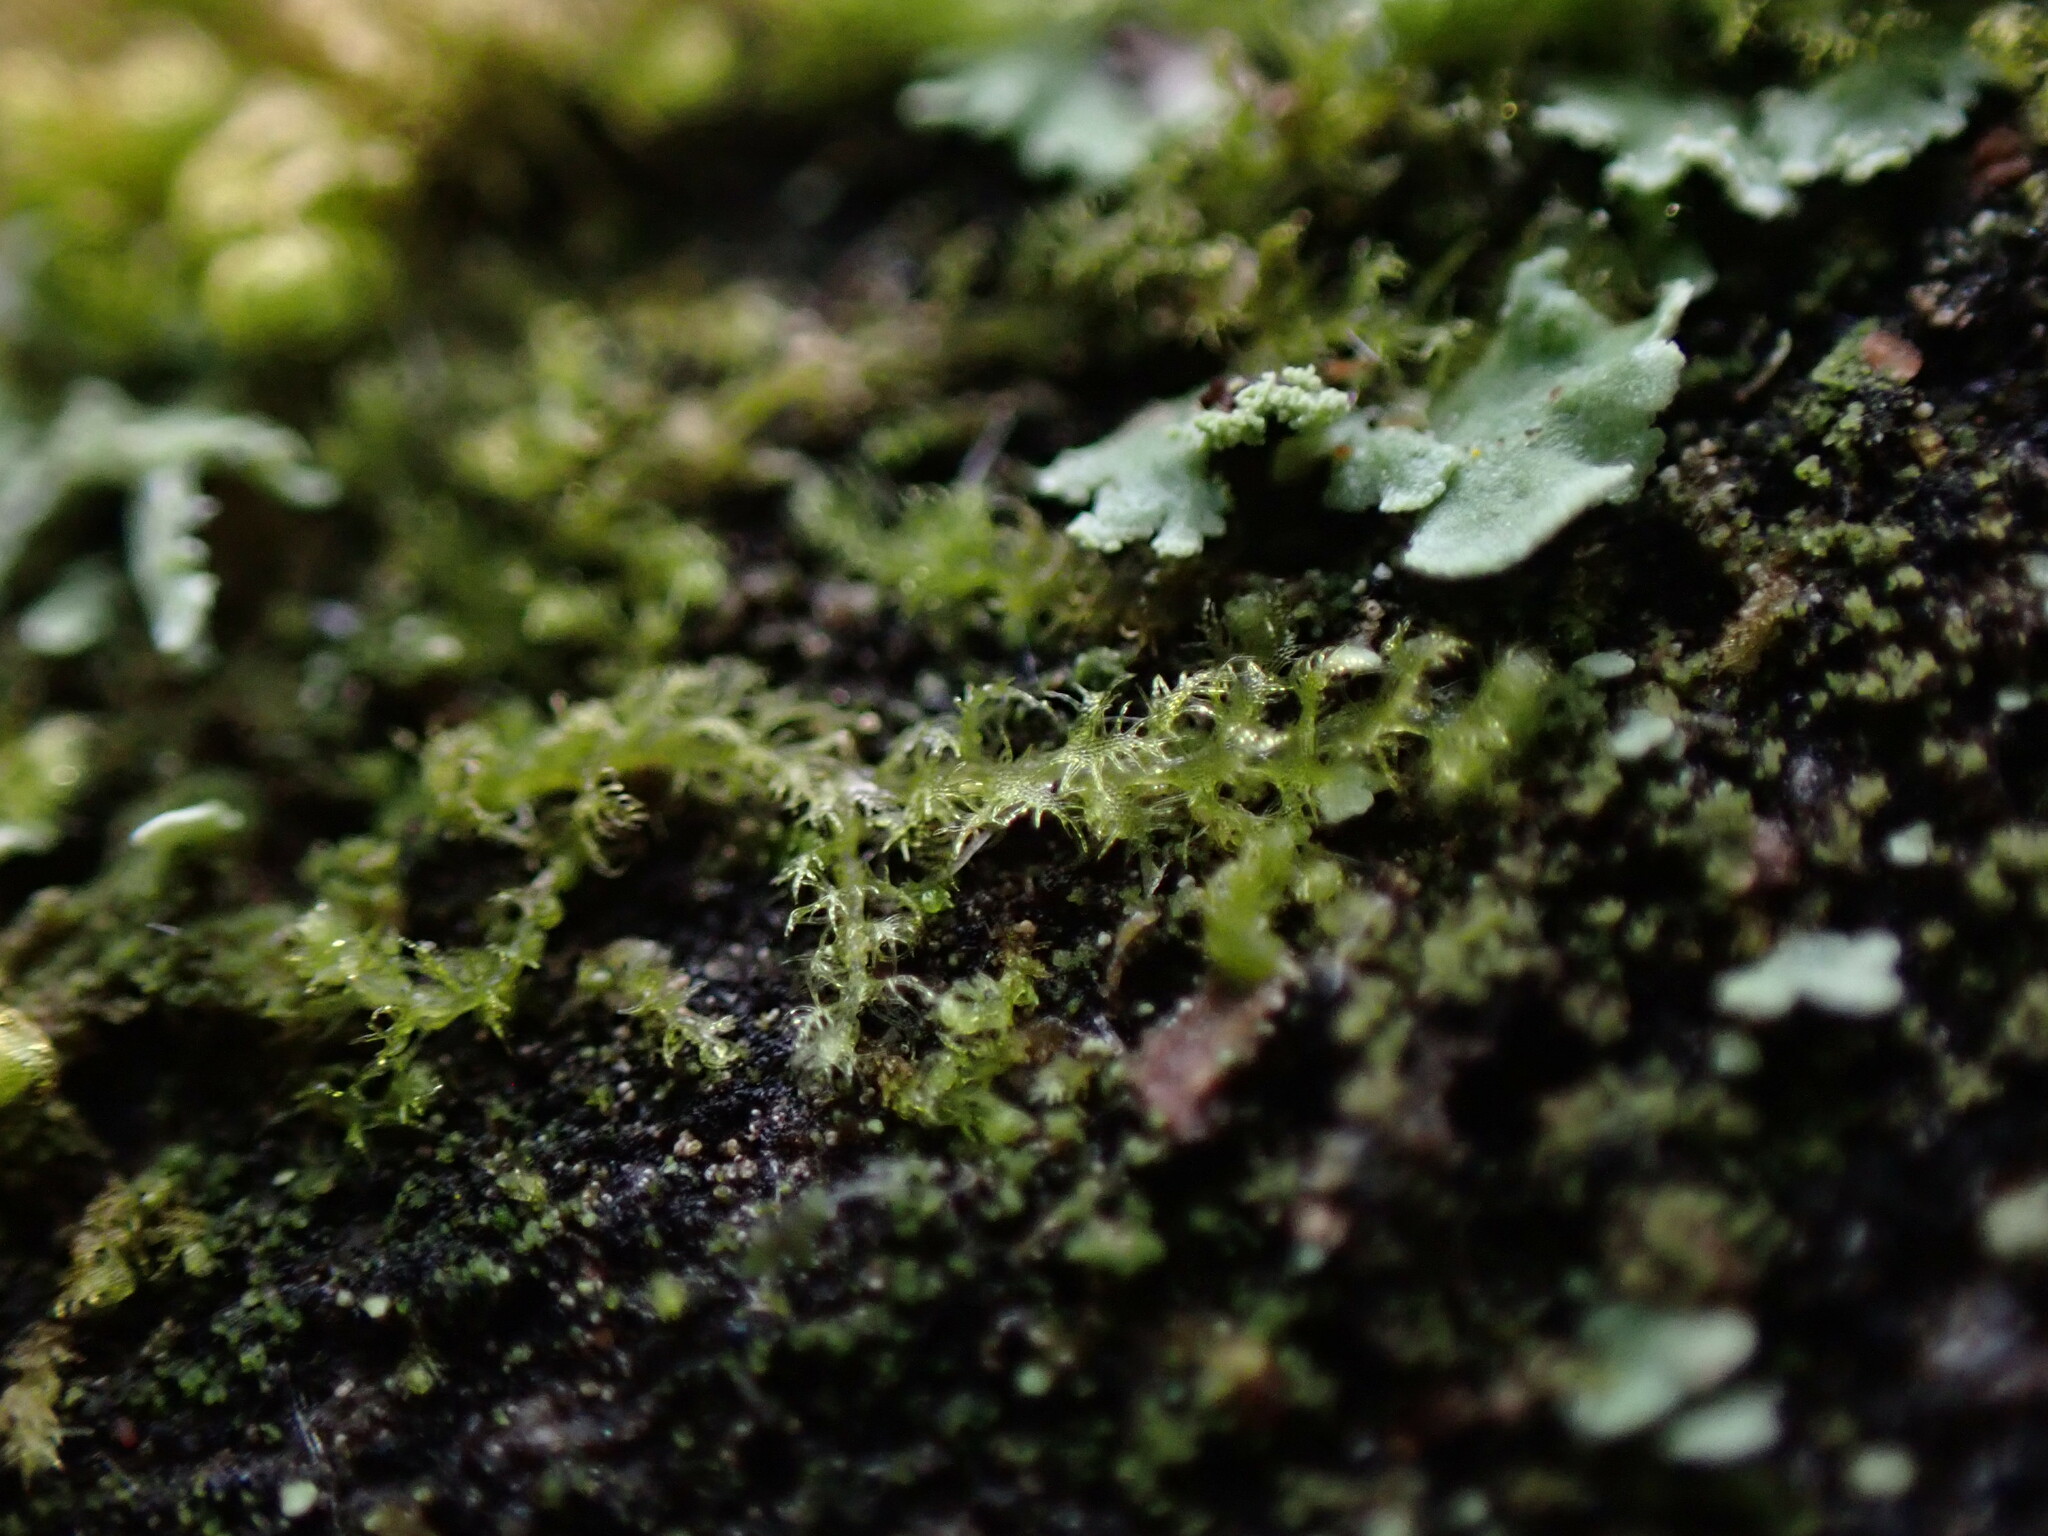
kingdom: Plantae
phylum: Marchantiophyta
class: Jungermanniopsida
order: Ptilidiales
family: Ptilidiaceae
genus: Ptilidium
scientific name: Ptilidium pulcherrimum
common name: Tree fringewort
